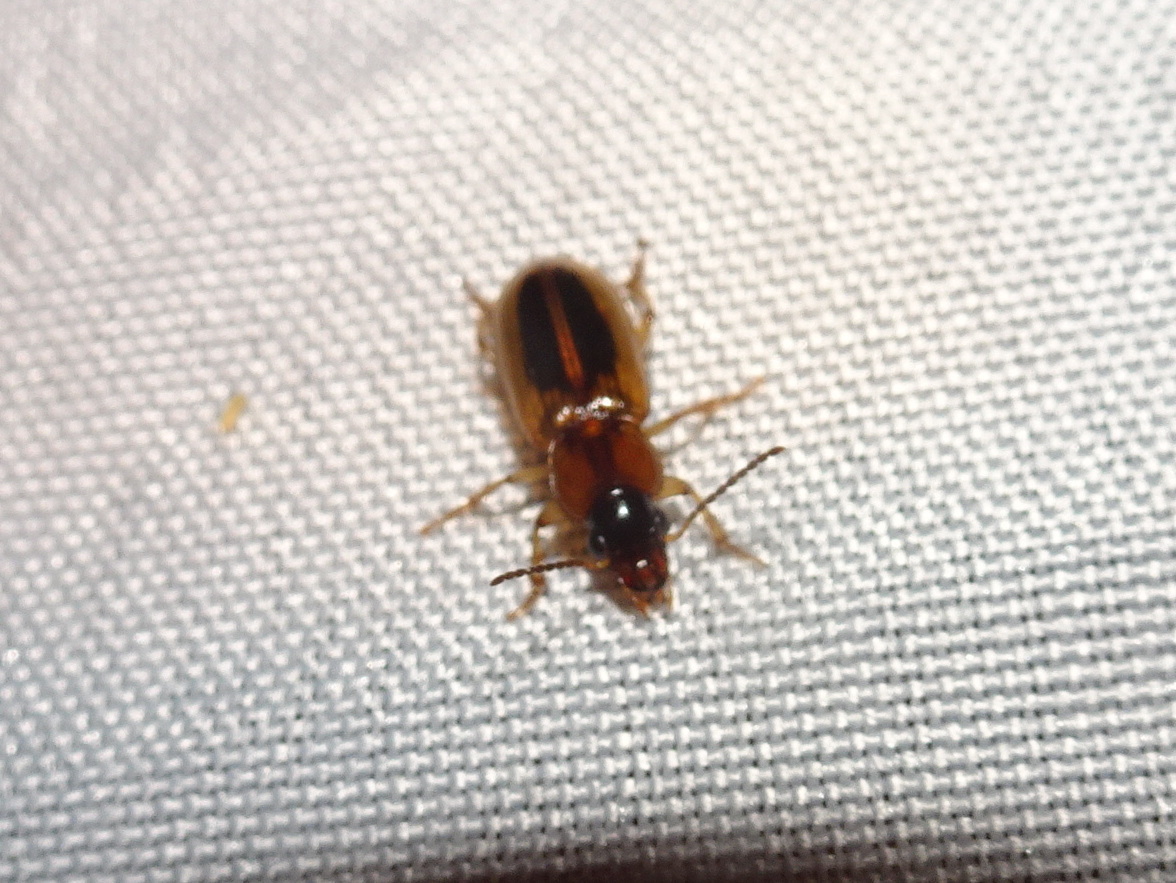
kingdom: Animalia
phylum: Arthropoda
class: Insecta
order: Coleoptera
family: Carabidae
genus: Stenolophus
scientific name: Stenolophus lecontei
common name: Leconte's seedcorn beetle
